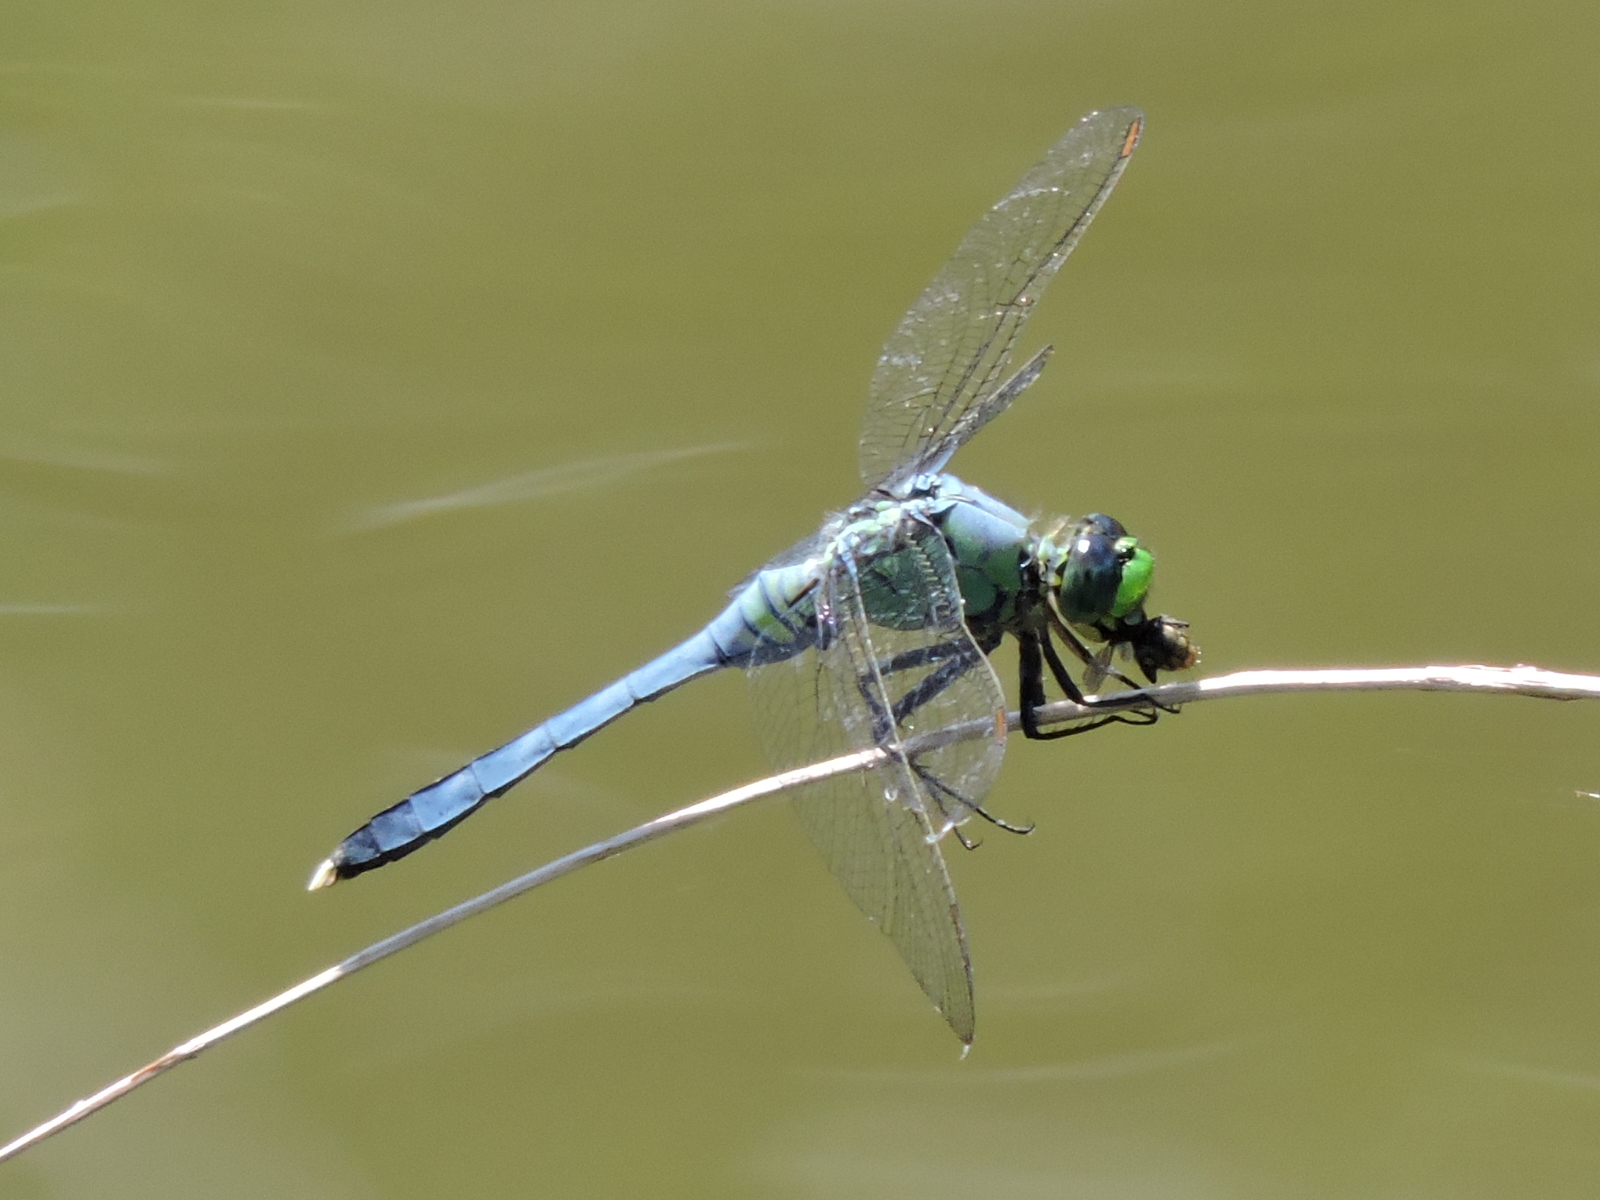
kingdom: Animalia
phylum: Arthropoda
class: Insecta
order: Odonata
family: Libellulidae
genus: Erythemis
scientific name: Erythemis simplicicollis
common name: Eastern pondhawk
